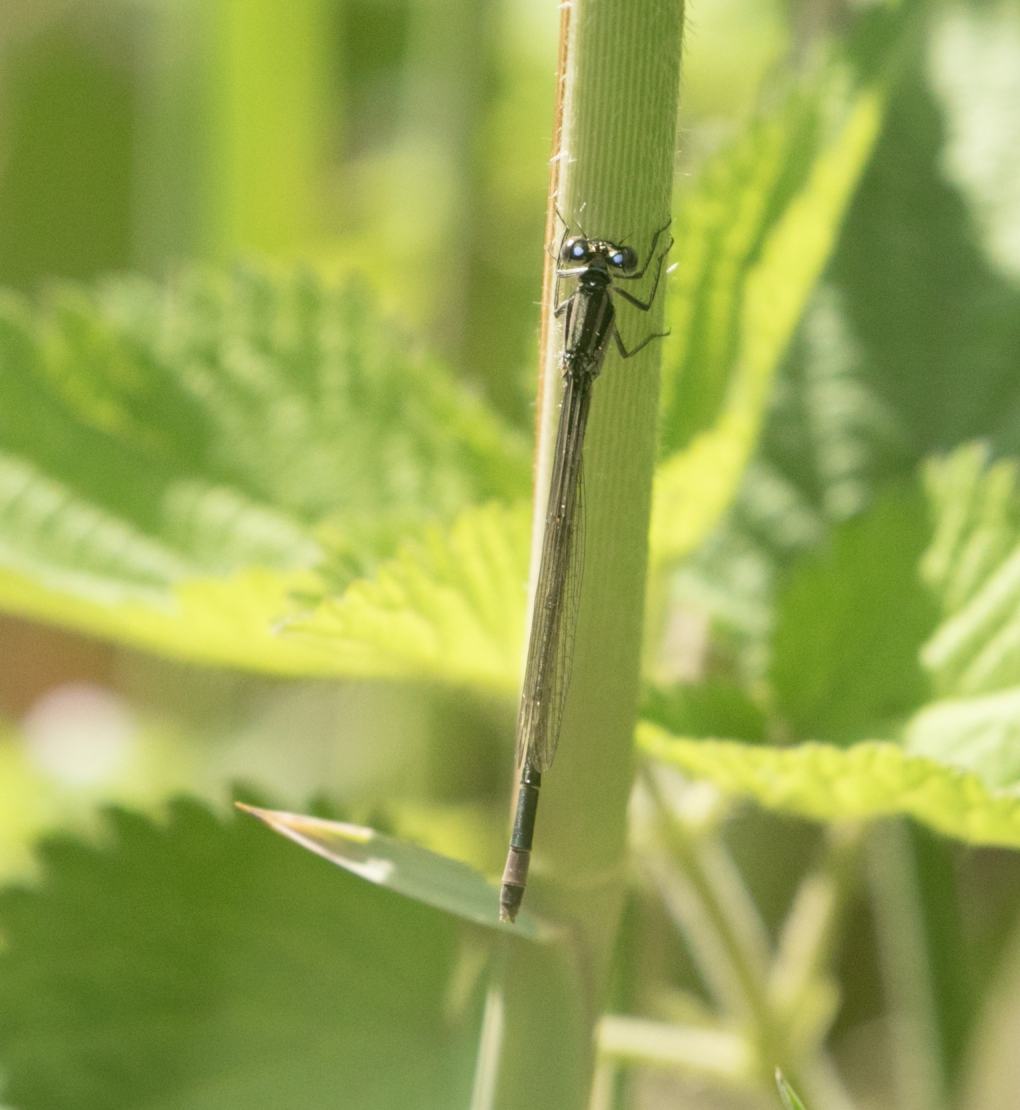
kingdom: Animalia
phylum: Arthropoda
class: Insecta
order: Odonata
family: Coenagrionidae
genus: Ischnura
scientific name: Ischnura elegans
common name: Blue-tailed damselfly
